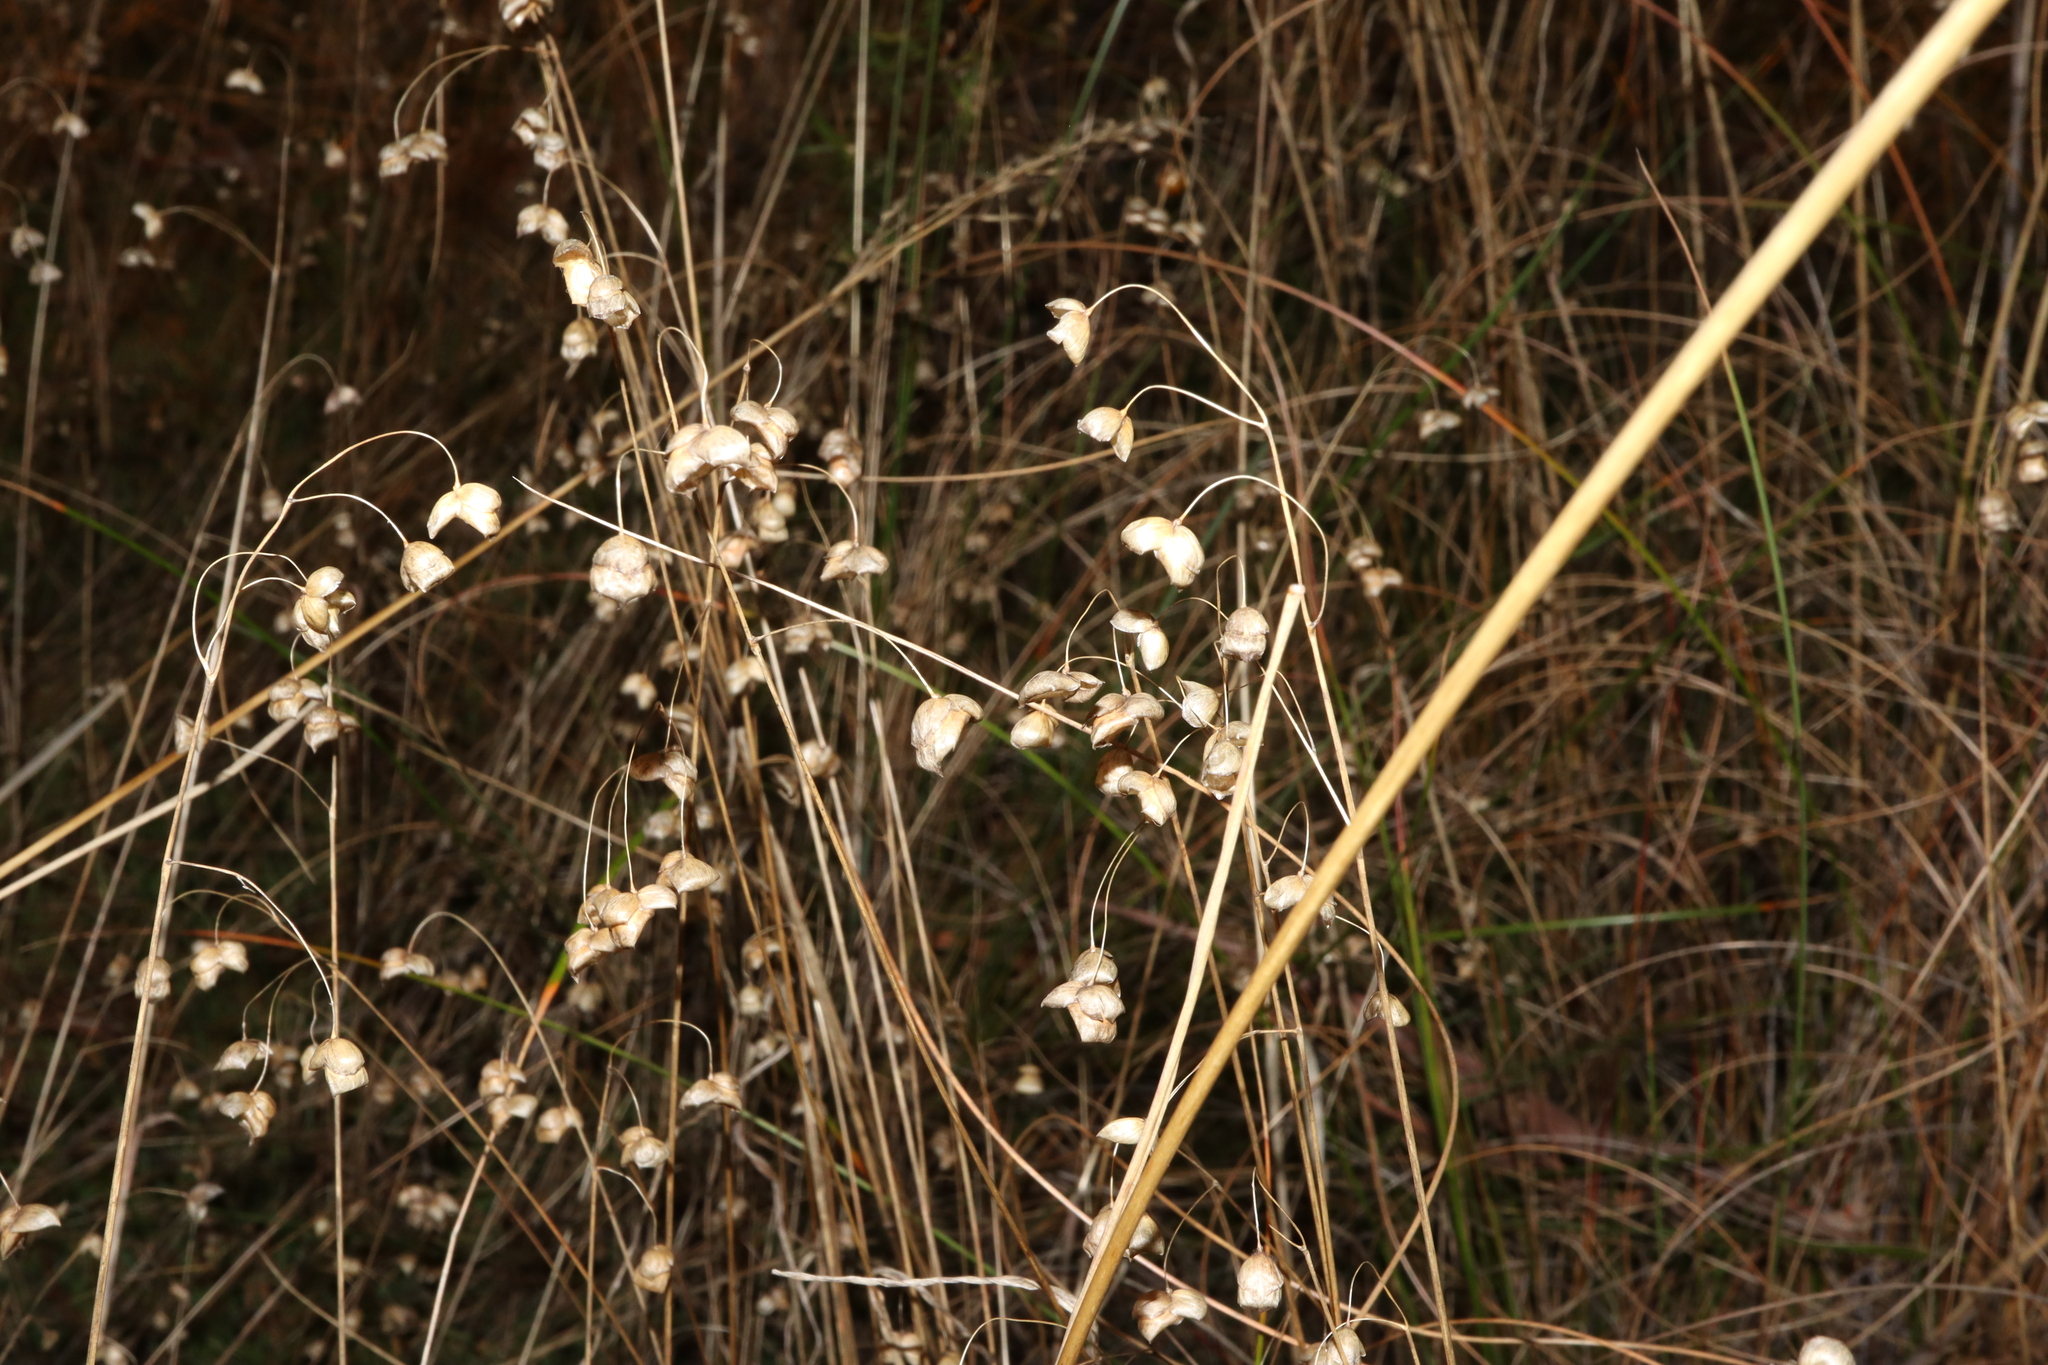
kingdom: Plantae
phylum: Tracheophyta
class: Liliopsida
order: Poales
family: Poaceae
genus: Briza
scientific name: Briza maxima
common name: Big quakinggrass
